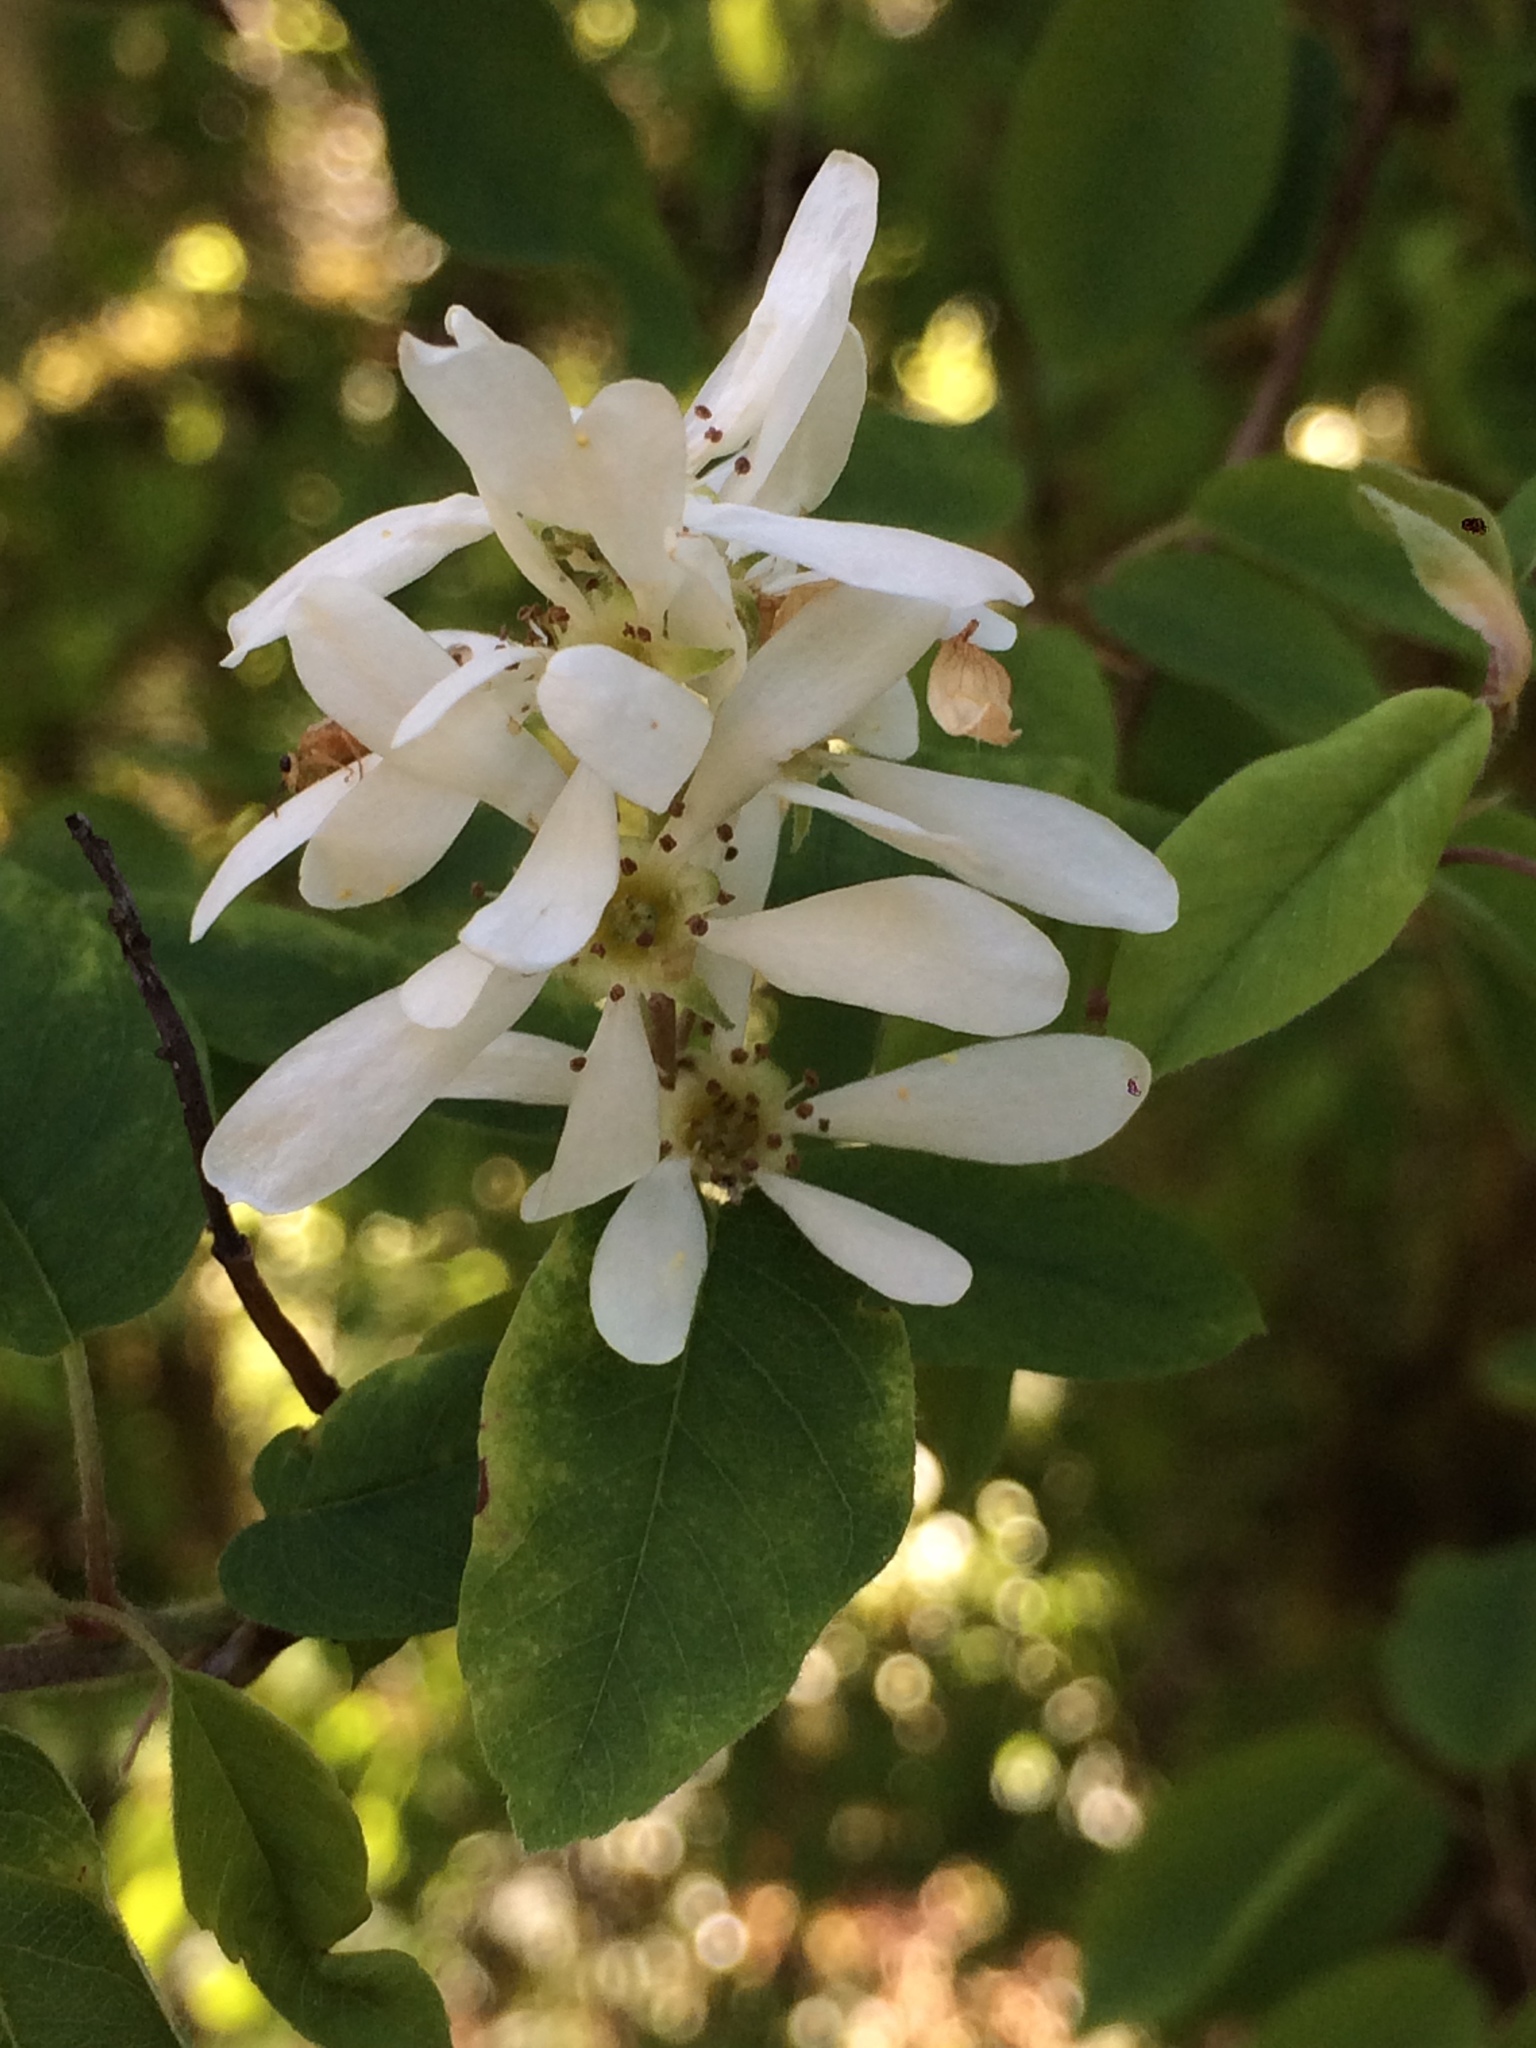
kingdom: Plantae
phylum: Tracheophyta
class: Magnoliopsida
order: Rosales
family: Rosaceae
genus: Amelanchier
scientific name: Amelanchier alnifolia
